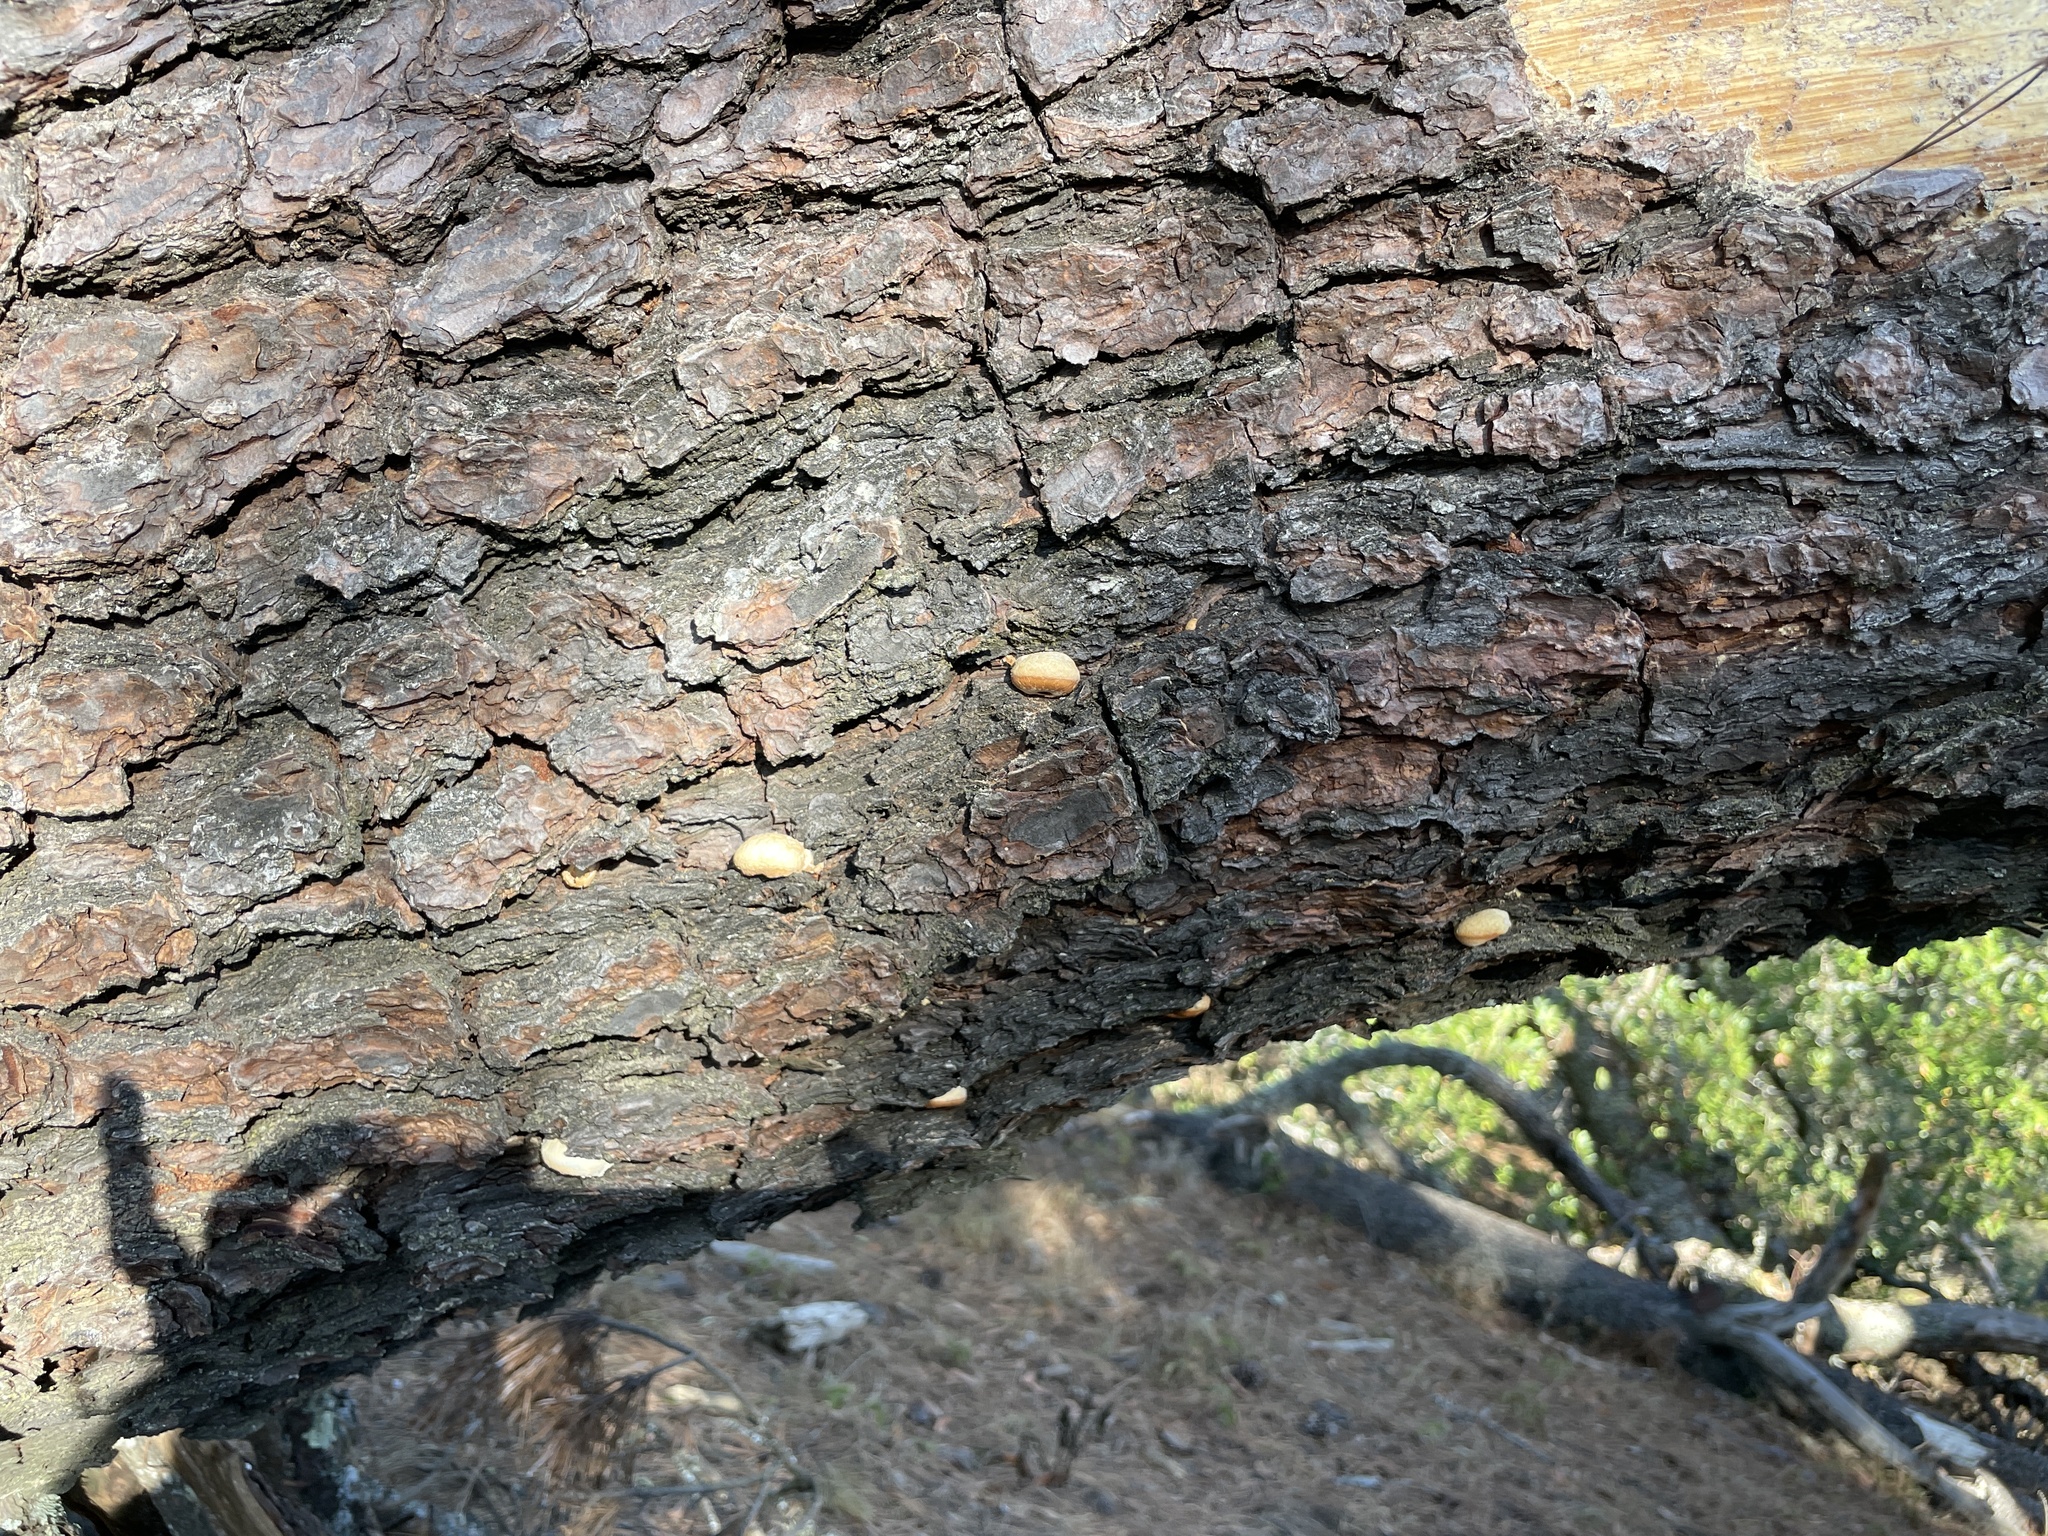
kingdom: Fungi
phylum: Basidiomycota
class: Agaricomycetes
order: Polyporales
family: Polyporaceae
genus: Cryptoporus
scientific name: Cryptoporus volvatus
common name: Veiled polypore
